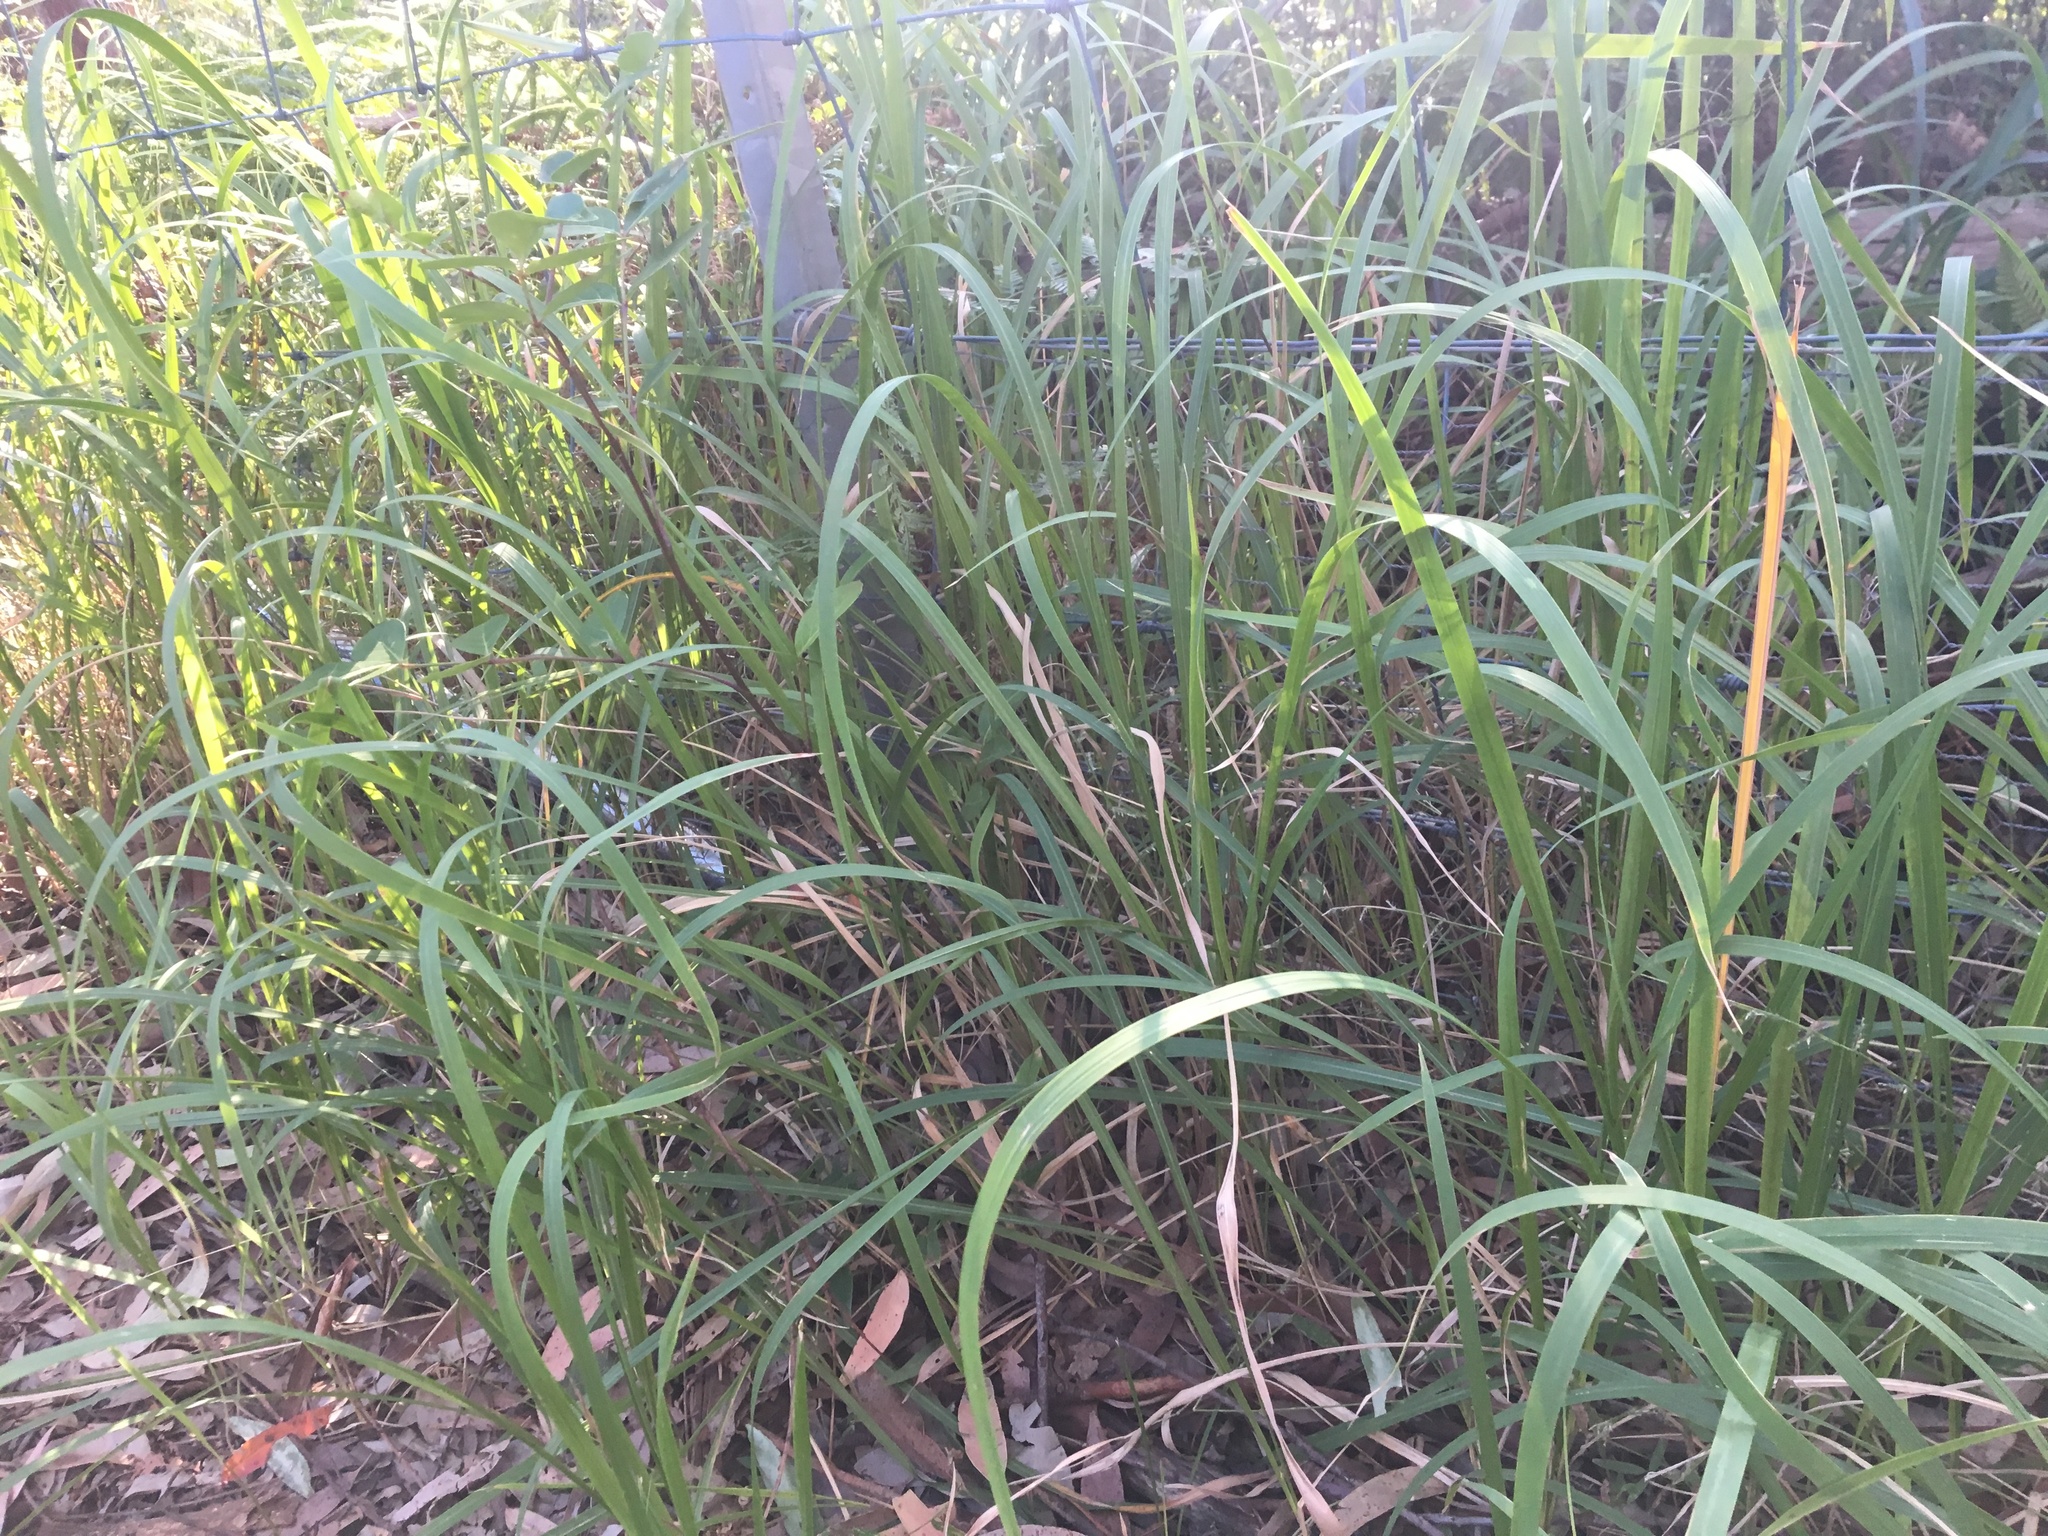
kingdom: Plantae
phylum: Tracheophyta
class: Liliopsida
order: Poales
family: Poaceae
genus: Imperata
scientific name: Imperata cylindrica
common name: Cogongrass
